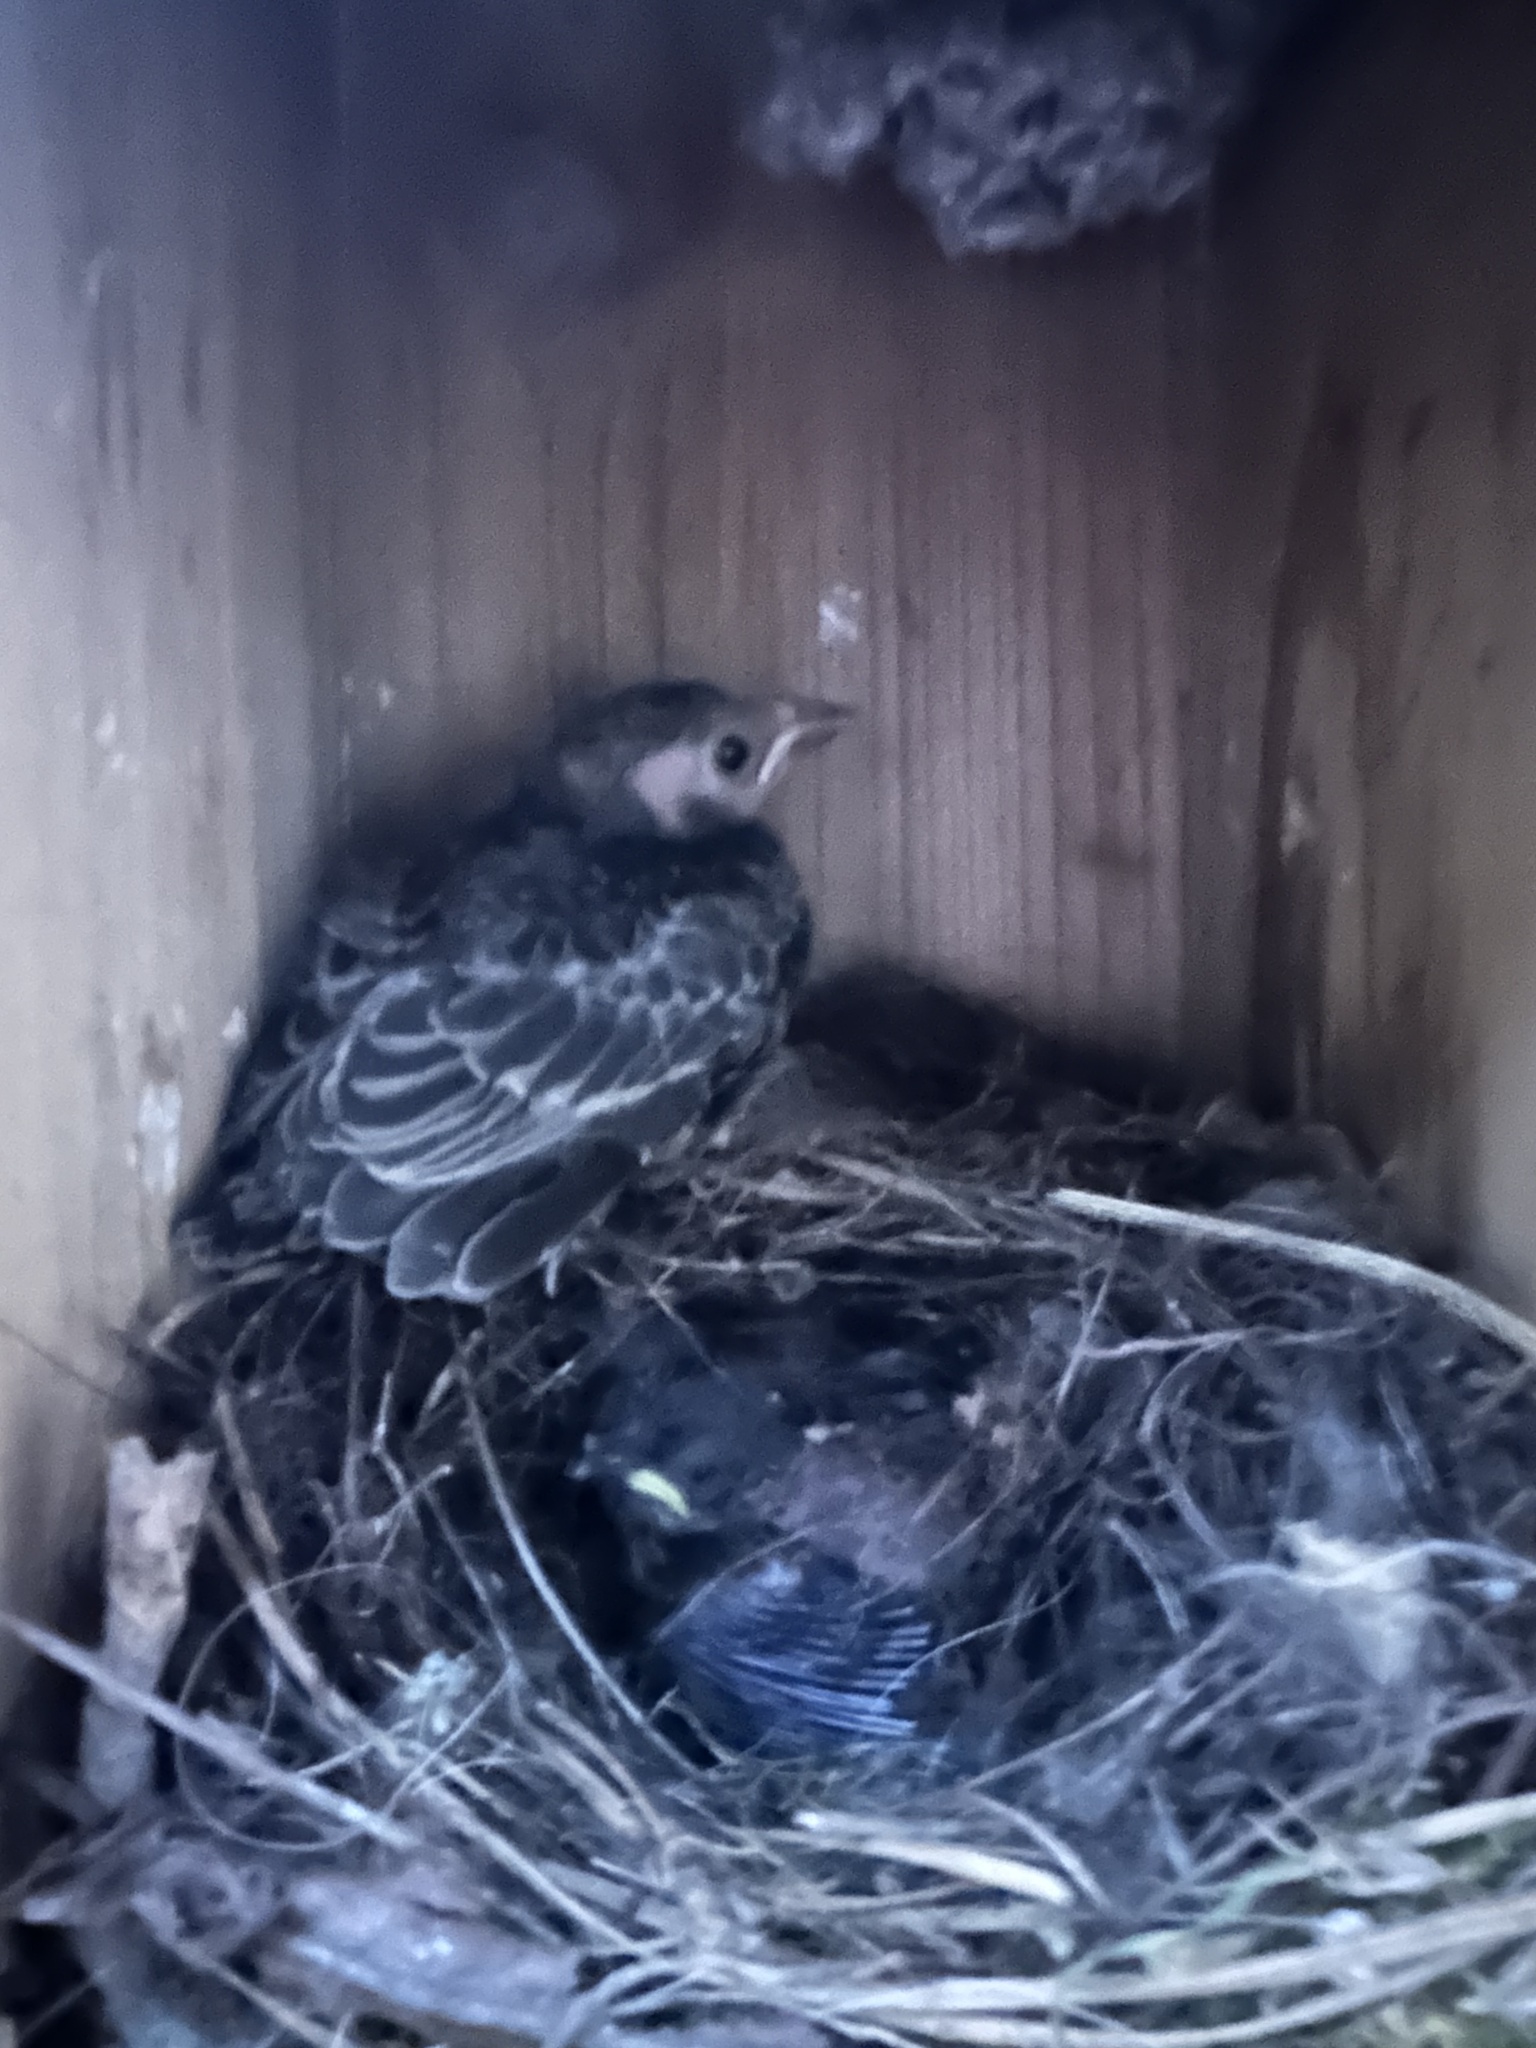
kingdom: Animalia
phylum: Chordata
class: Aves
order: Passeriformes
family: Icteridae
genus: Molothrus
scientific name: Molothrus ater
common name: Brown-headed cowbird
